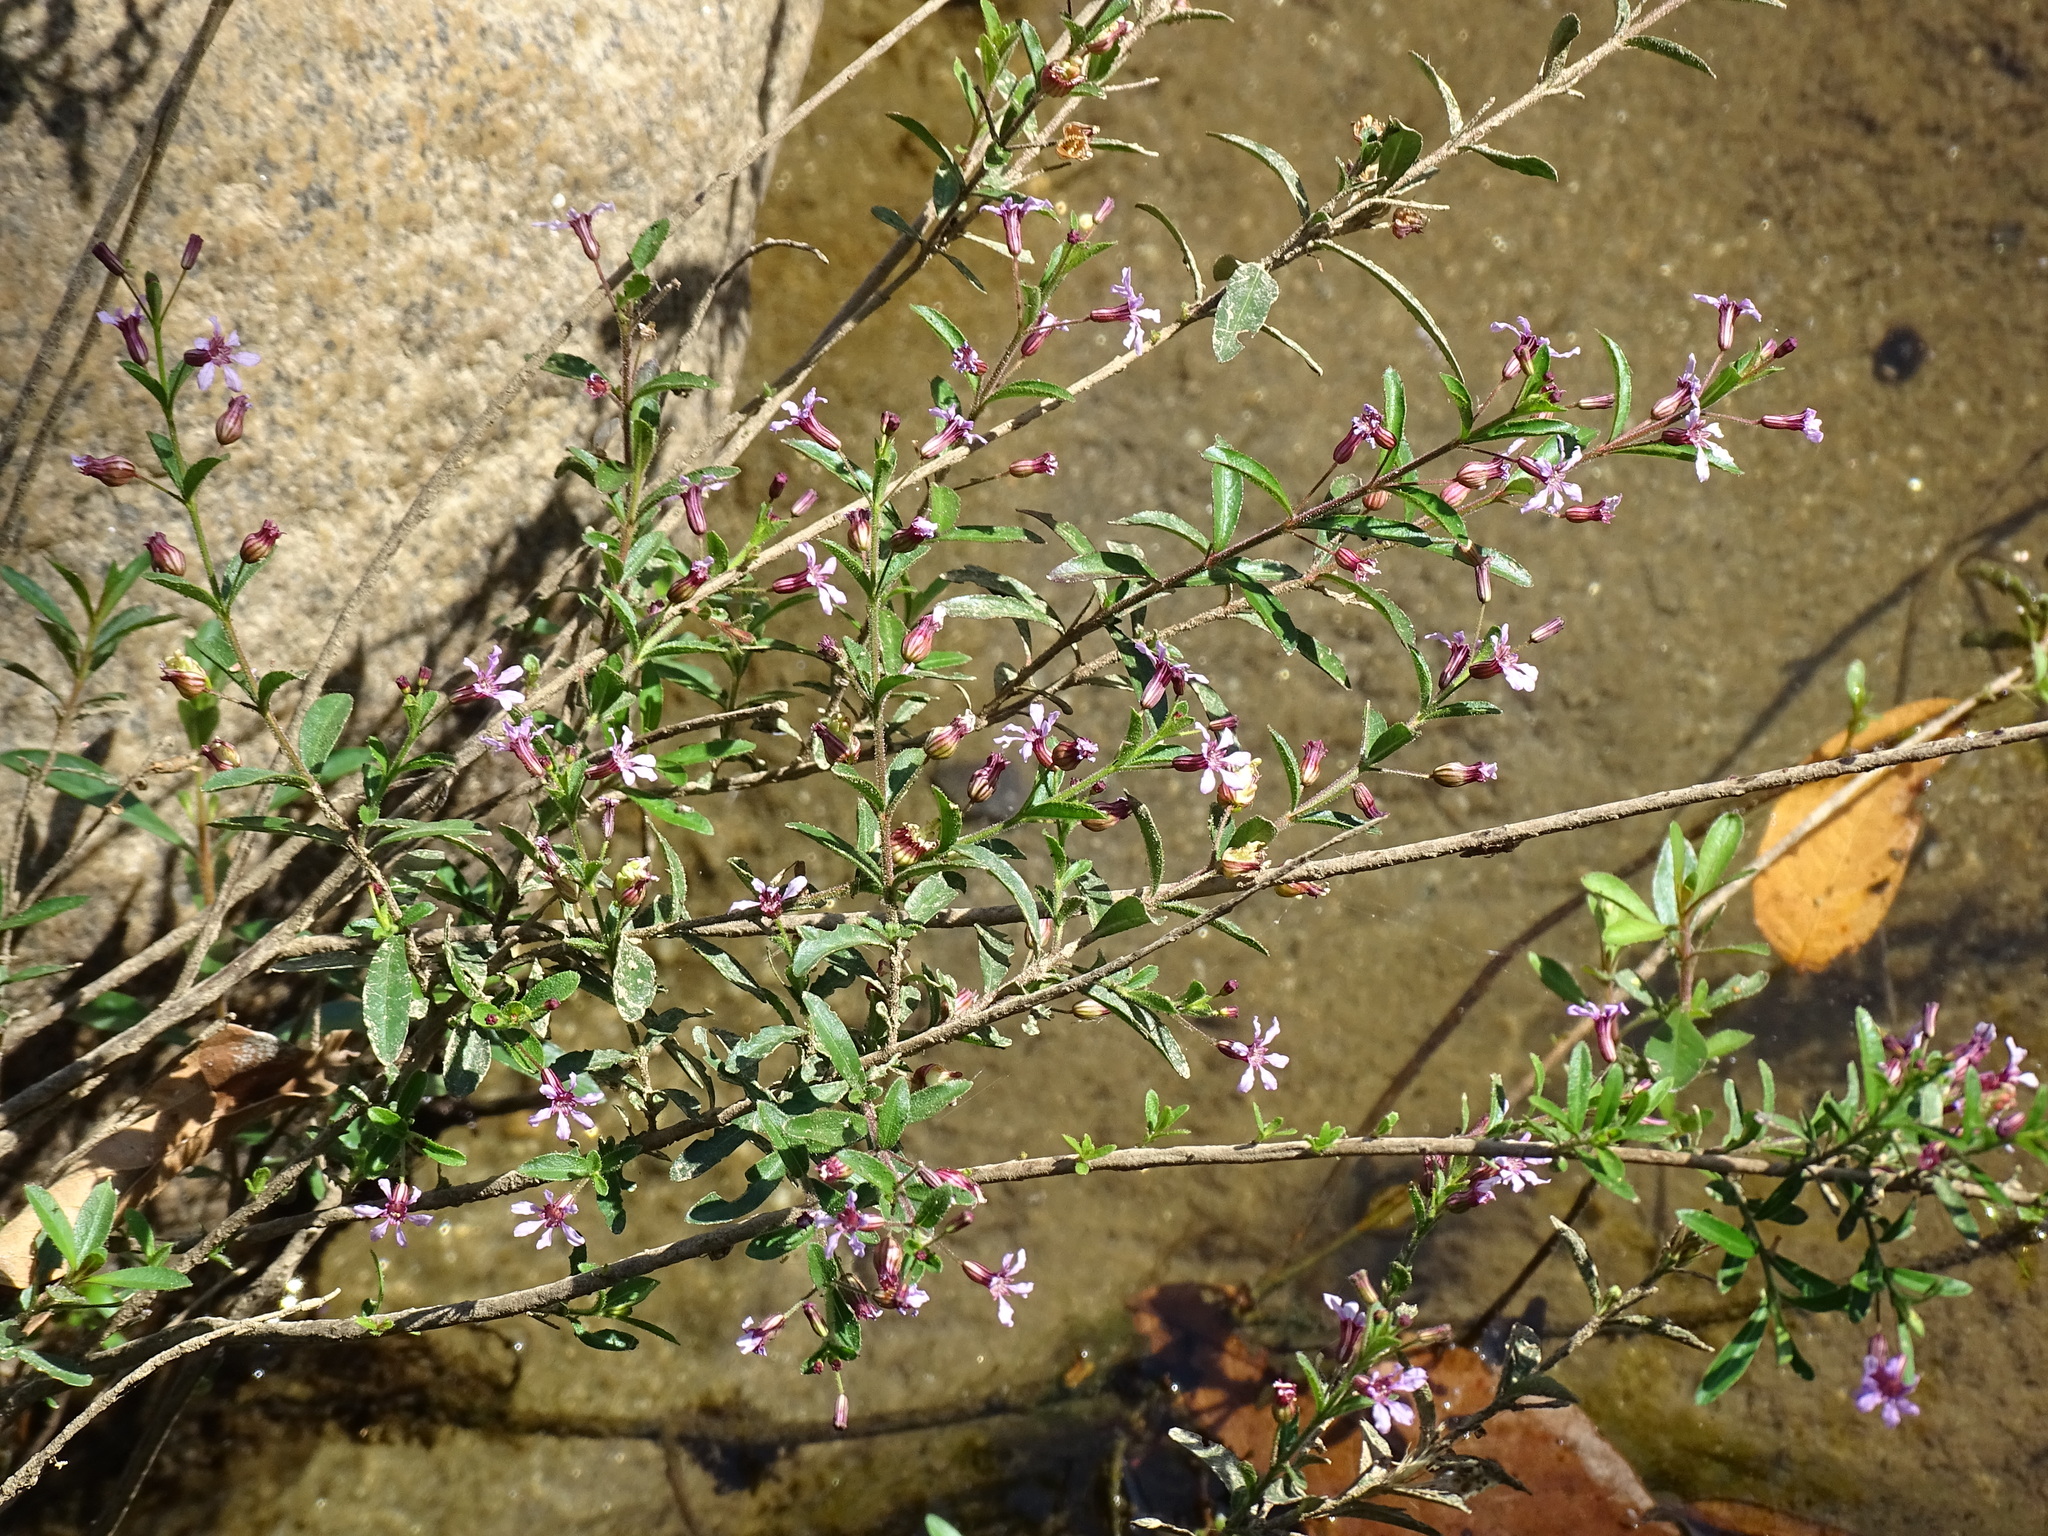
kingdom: Plantae
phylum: Tracheophyta
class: Magnoliopsida
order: Myrtales
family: Lythraceae
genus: Cuphea
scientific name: Cuphea hyssopifolia
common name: False heather
